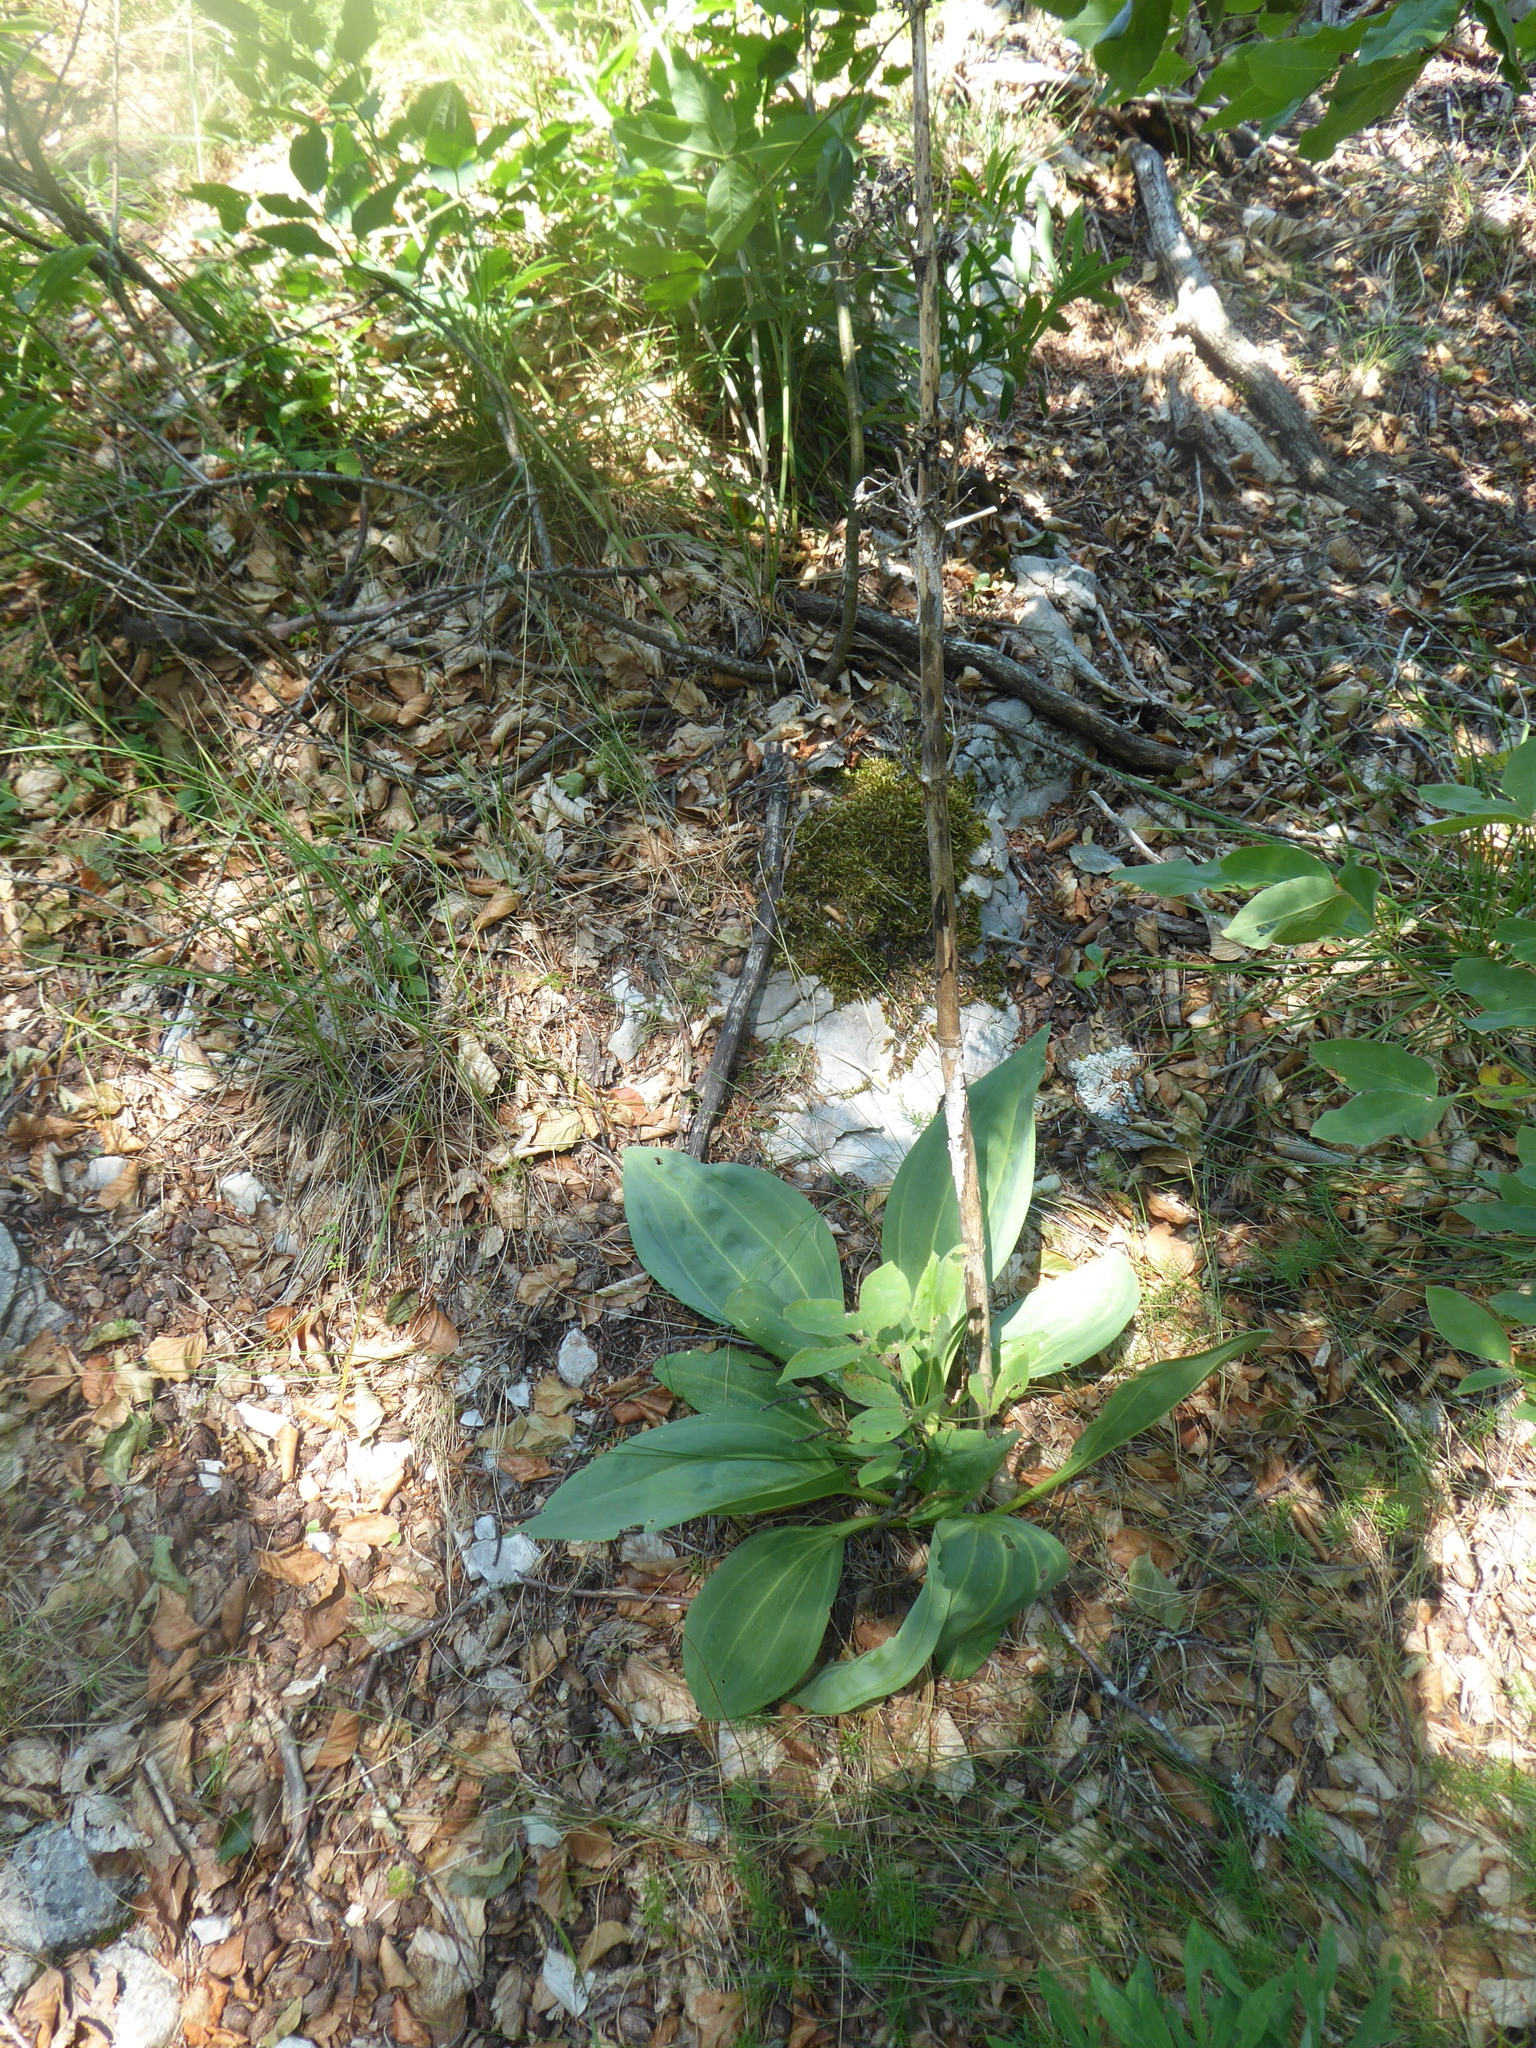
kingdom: Plantae
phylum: Tracheophyta
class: Magnoliopsida
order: Gentianales
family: Gentianaceae
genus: Gentiana
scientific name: Gentiana lutea
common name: Great yellow gentian
